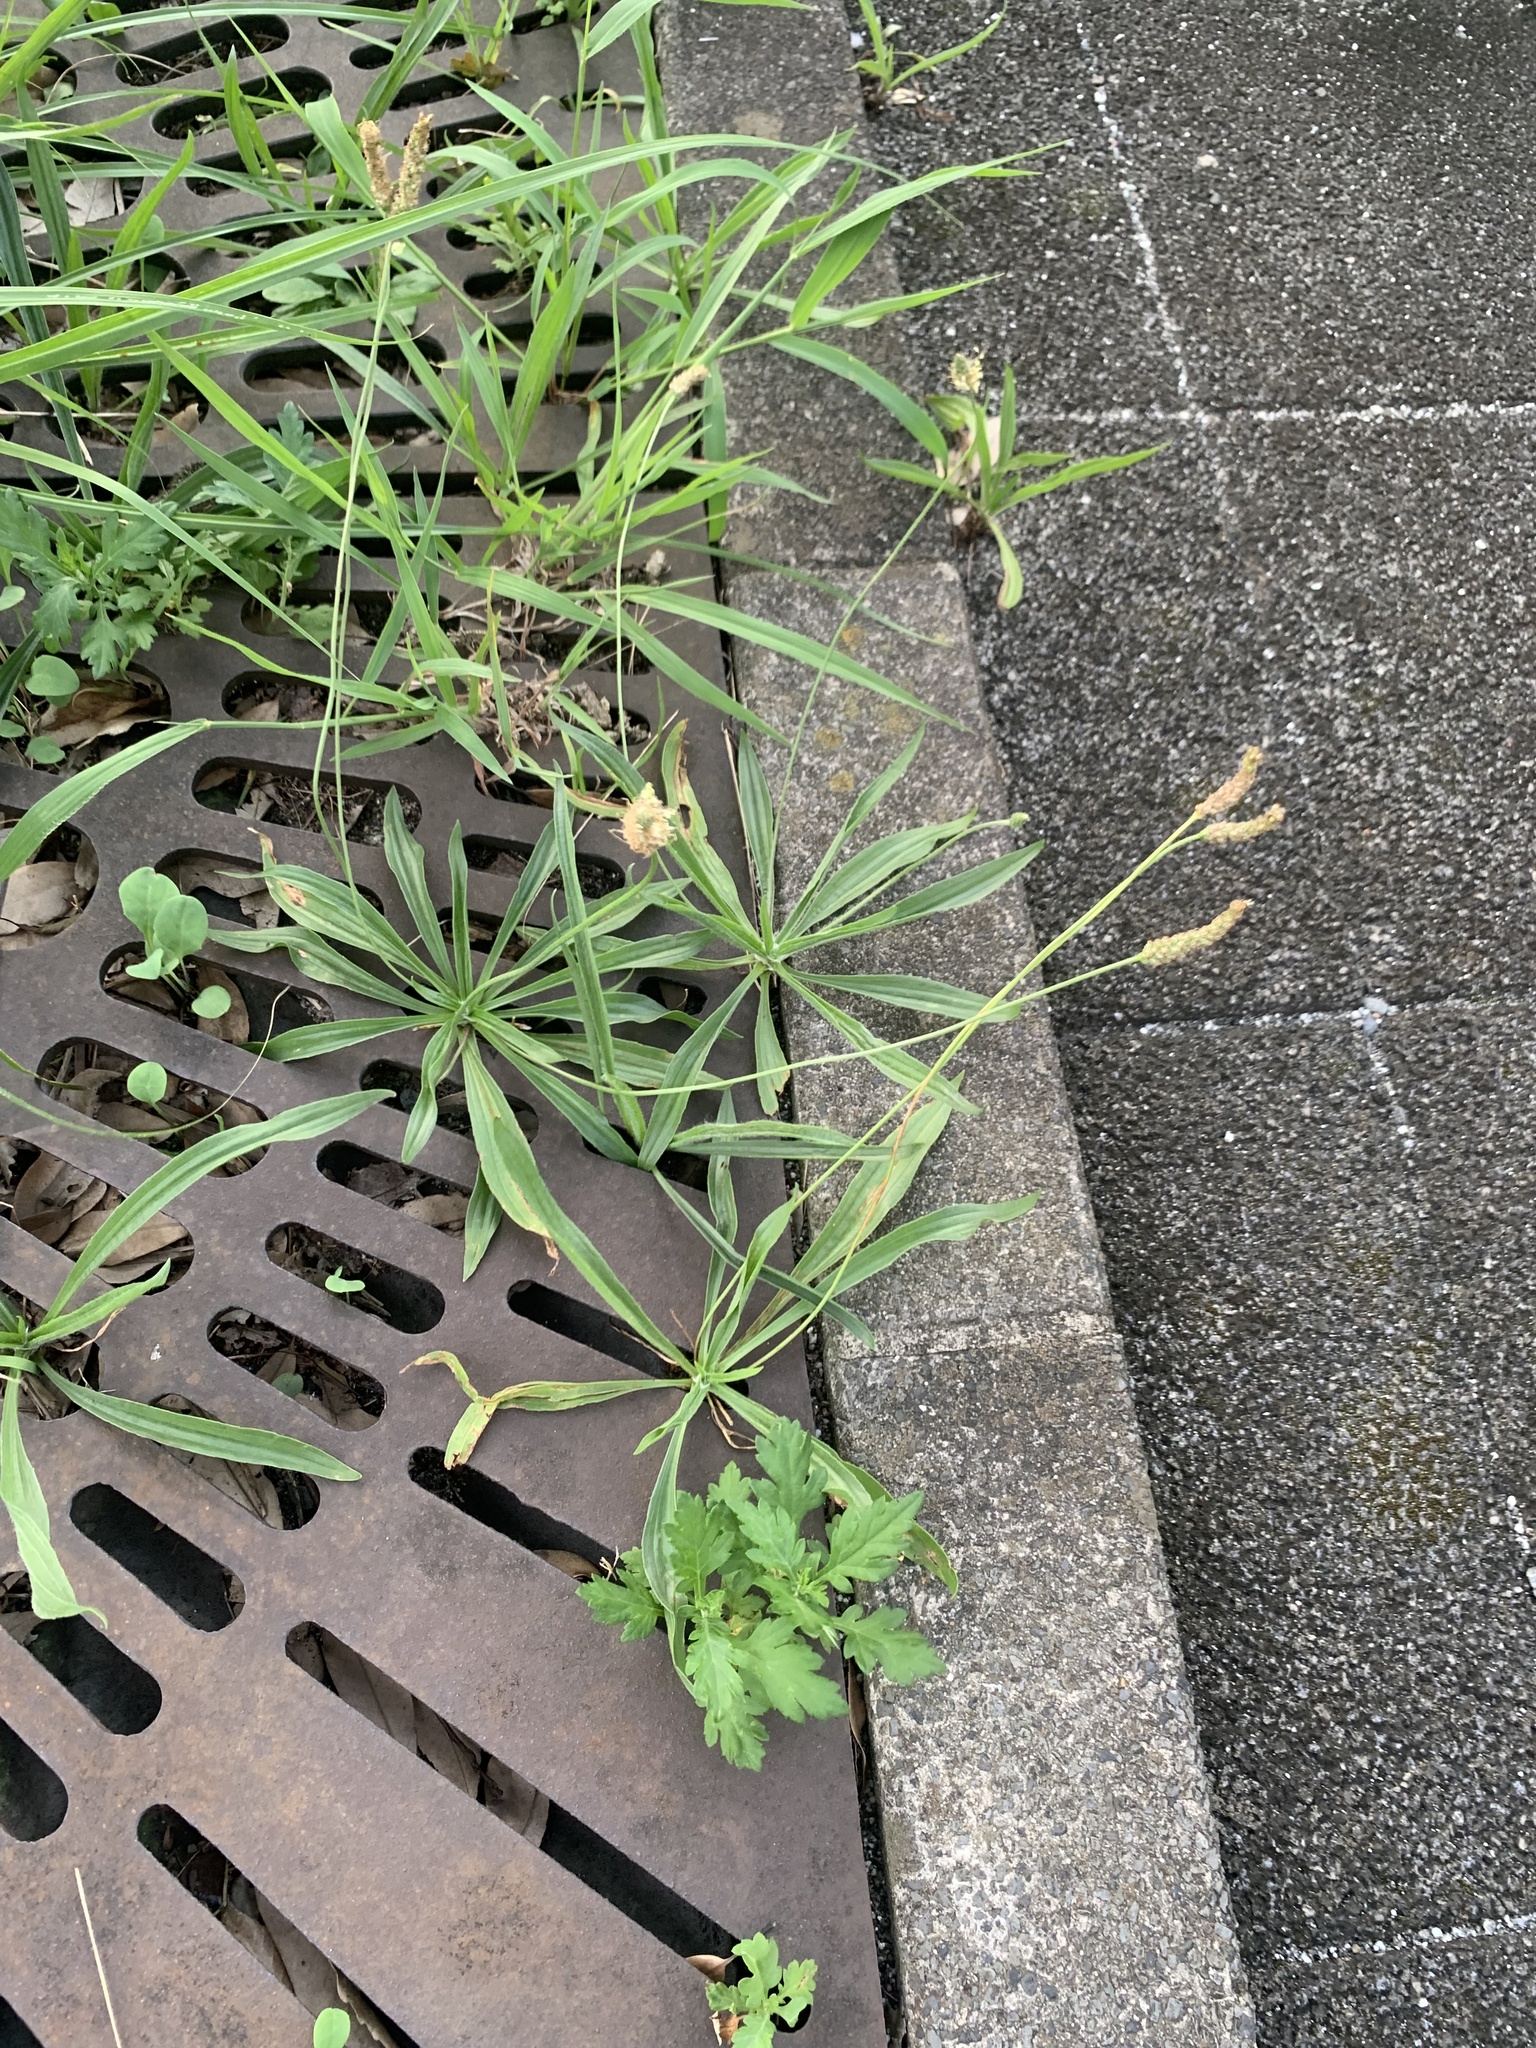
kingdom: Plantae
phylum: Tracheophyta
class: Magnoliopsida
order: Lamiales
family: Plantaginaceae
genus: Plantago
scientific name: Plantago lanceolata
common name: Ribwort plantain
